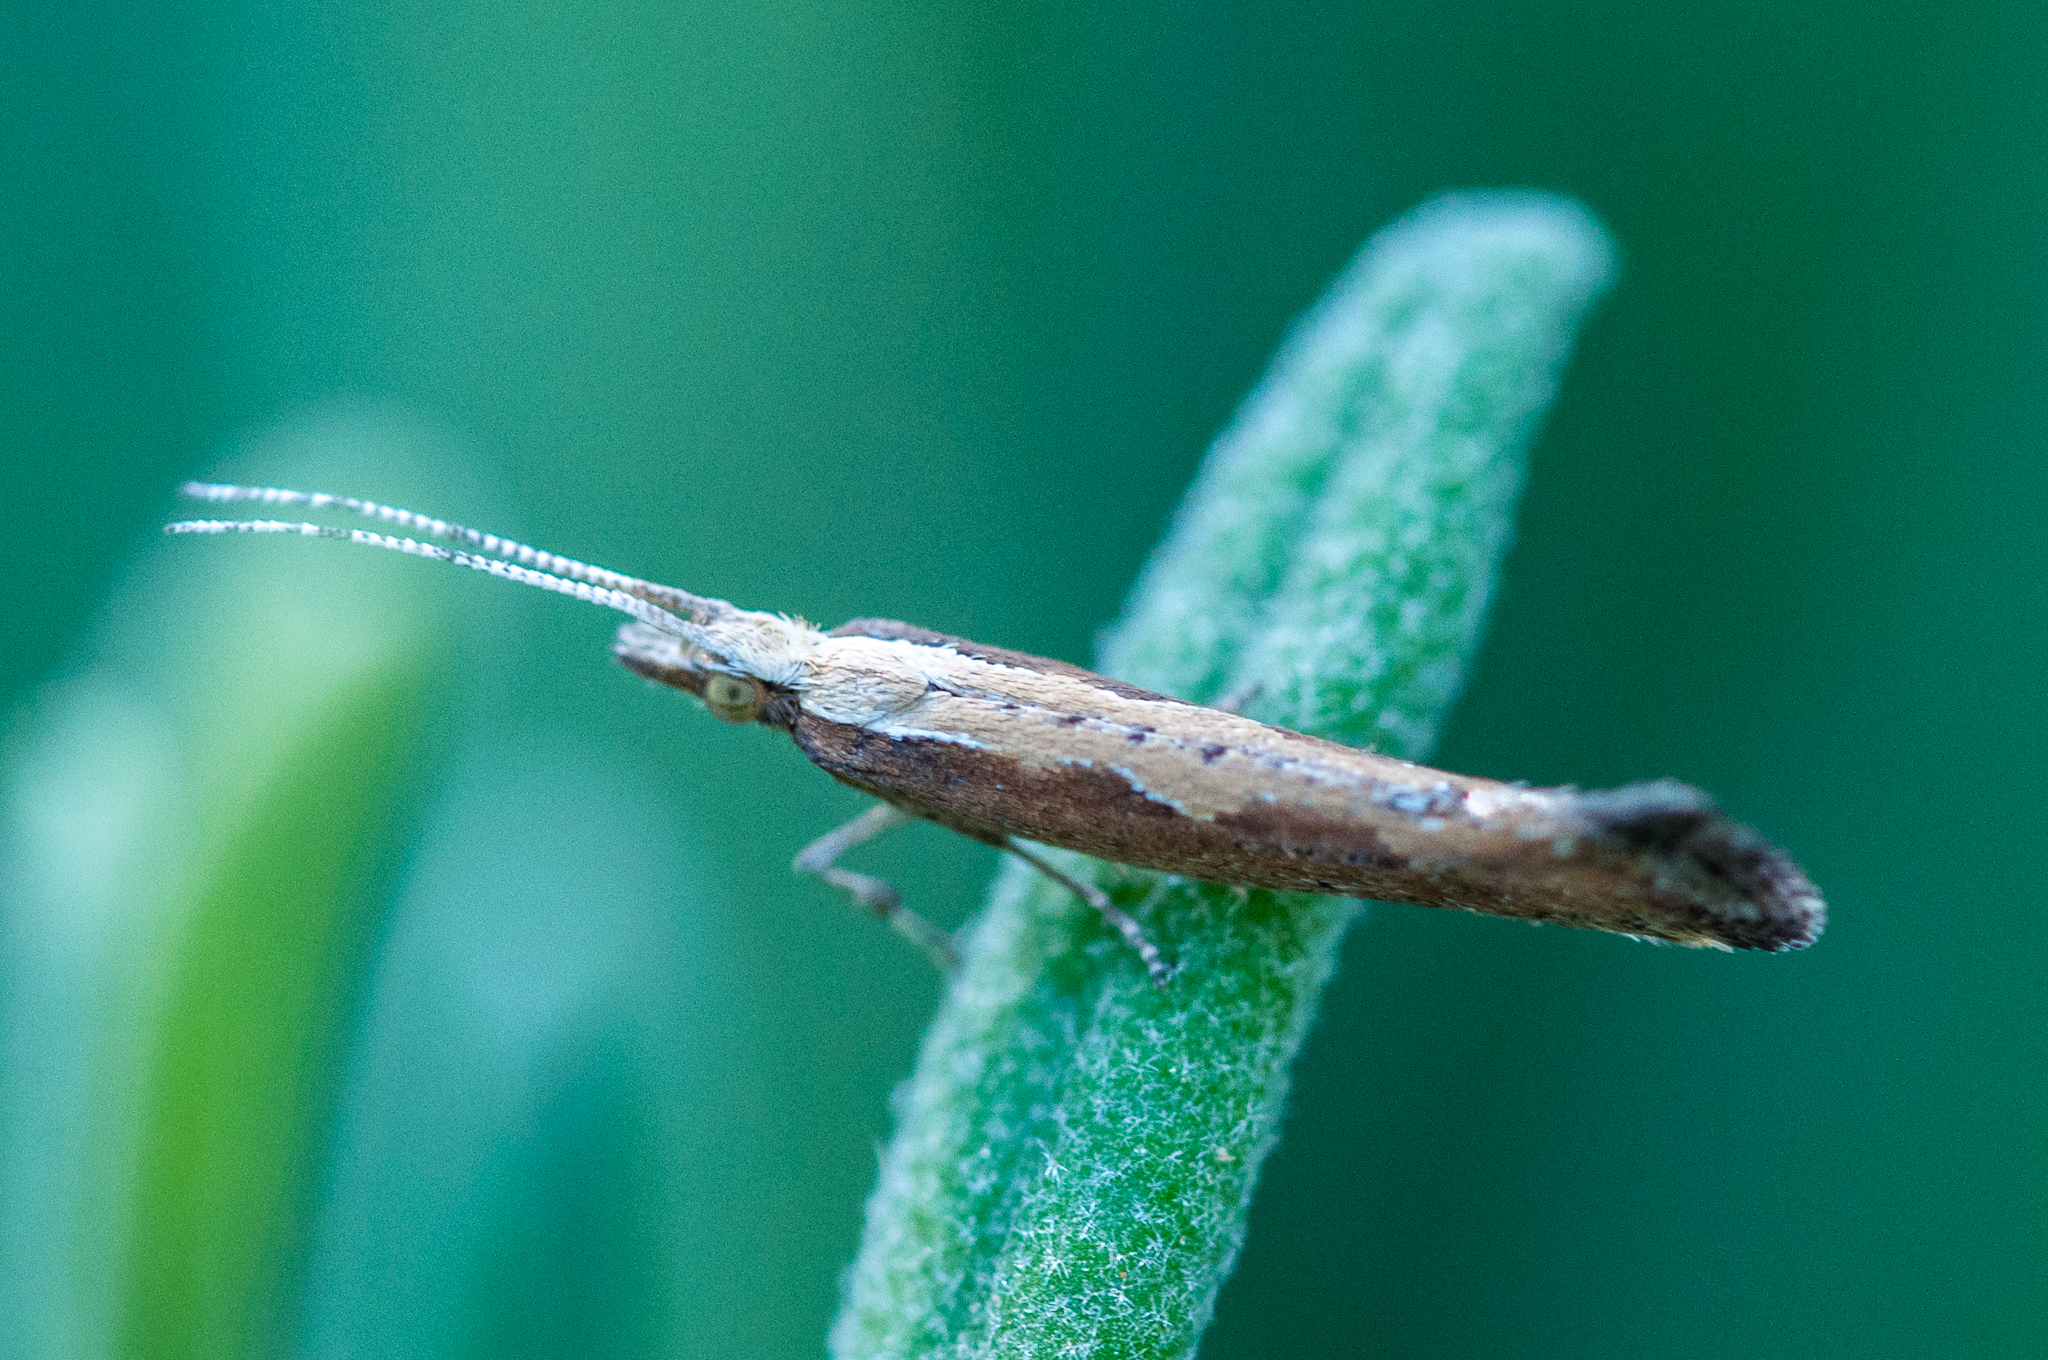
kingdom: Animalia
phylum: Arthropoda
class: Insecta
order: Lepidoptera
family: Plutellidae
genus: Plutella
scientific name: Plutella xylostella
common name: Diamond-back moth
